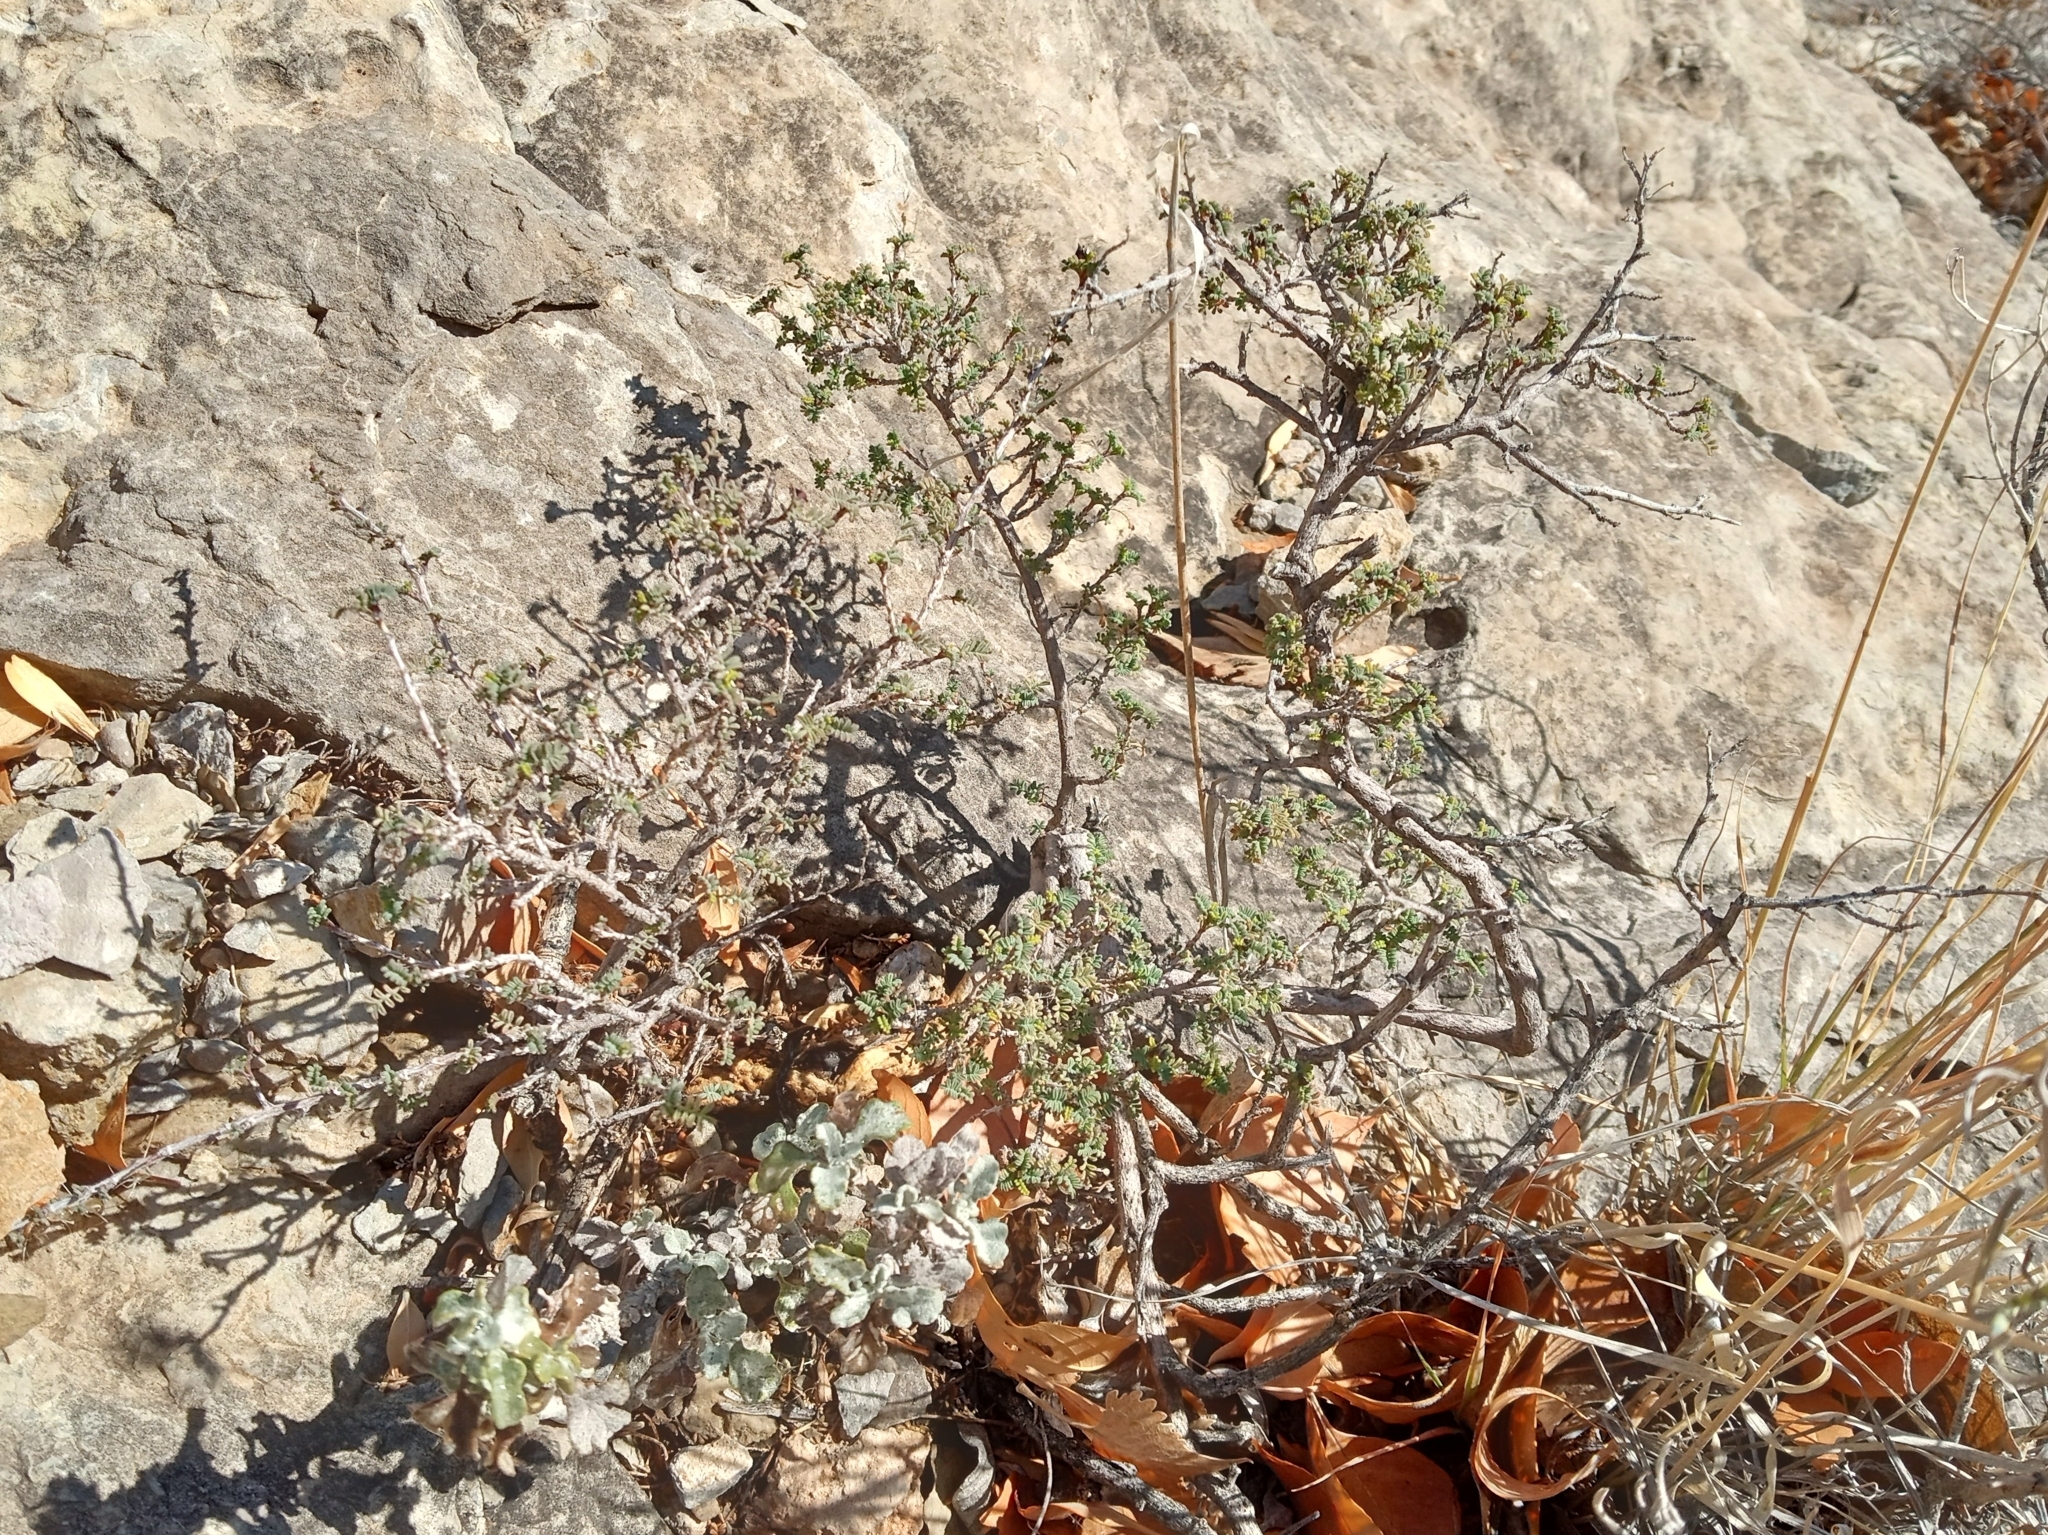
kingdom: Plantae
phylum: Tracheophyta
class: Magnoliopsida
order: Fabales
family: Fabaceae
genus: Dalea
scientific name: Dalea formosa
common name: Feather-plume dalea
